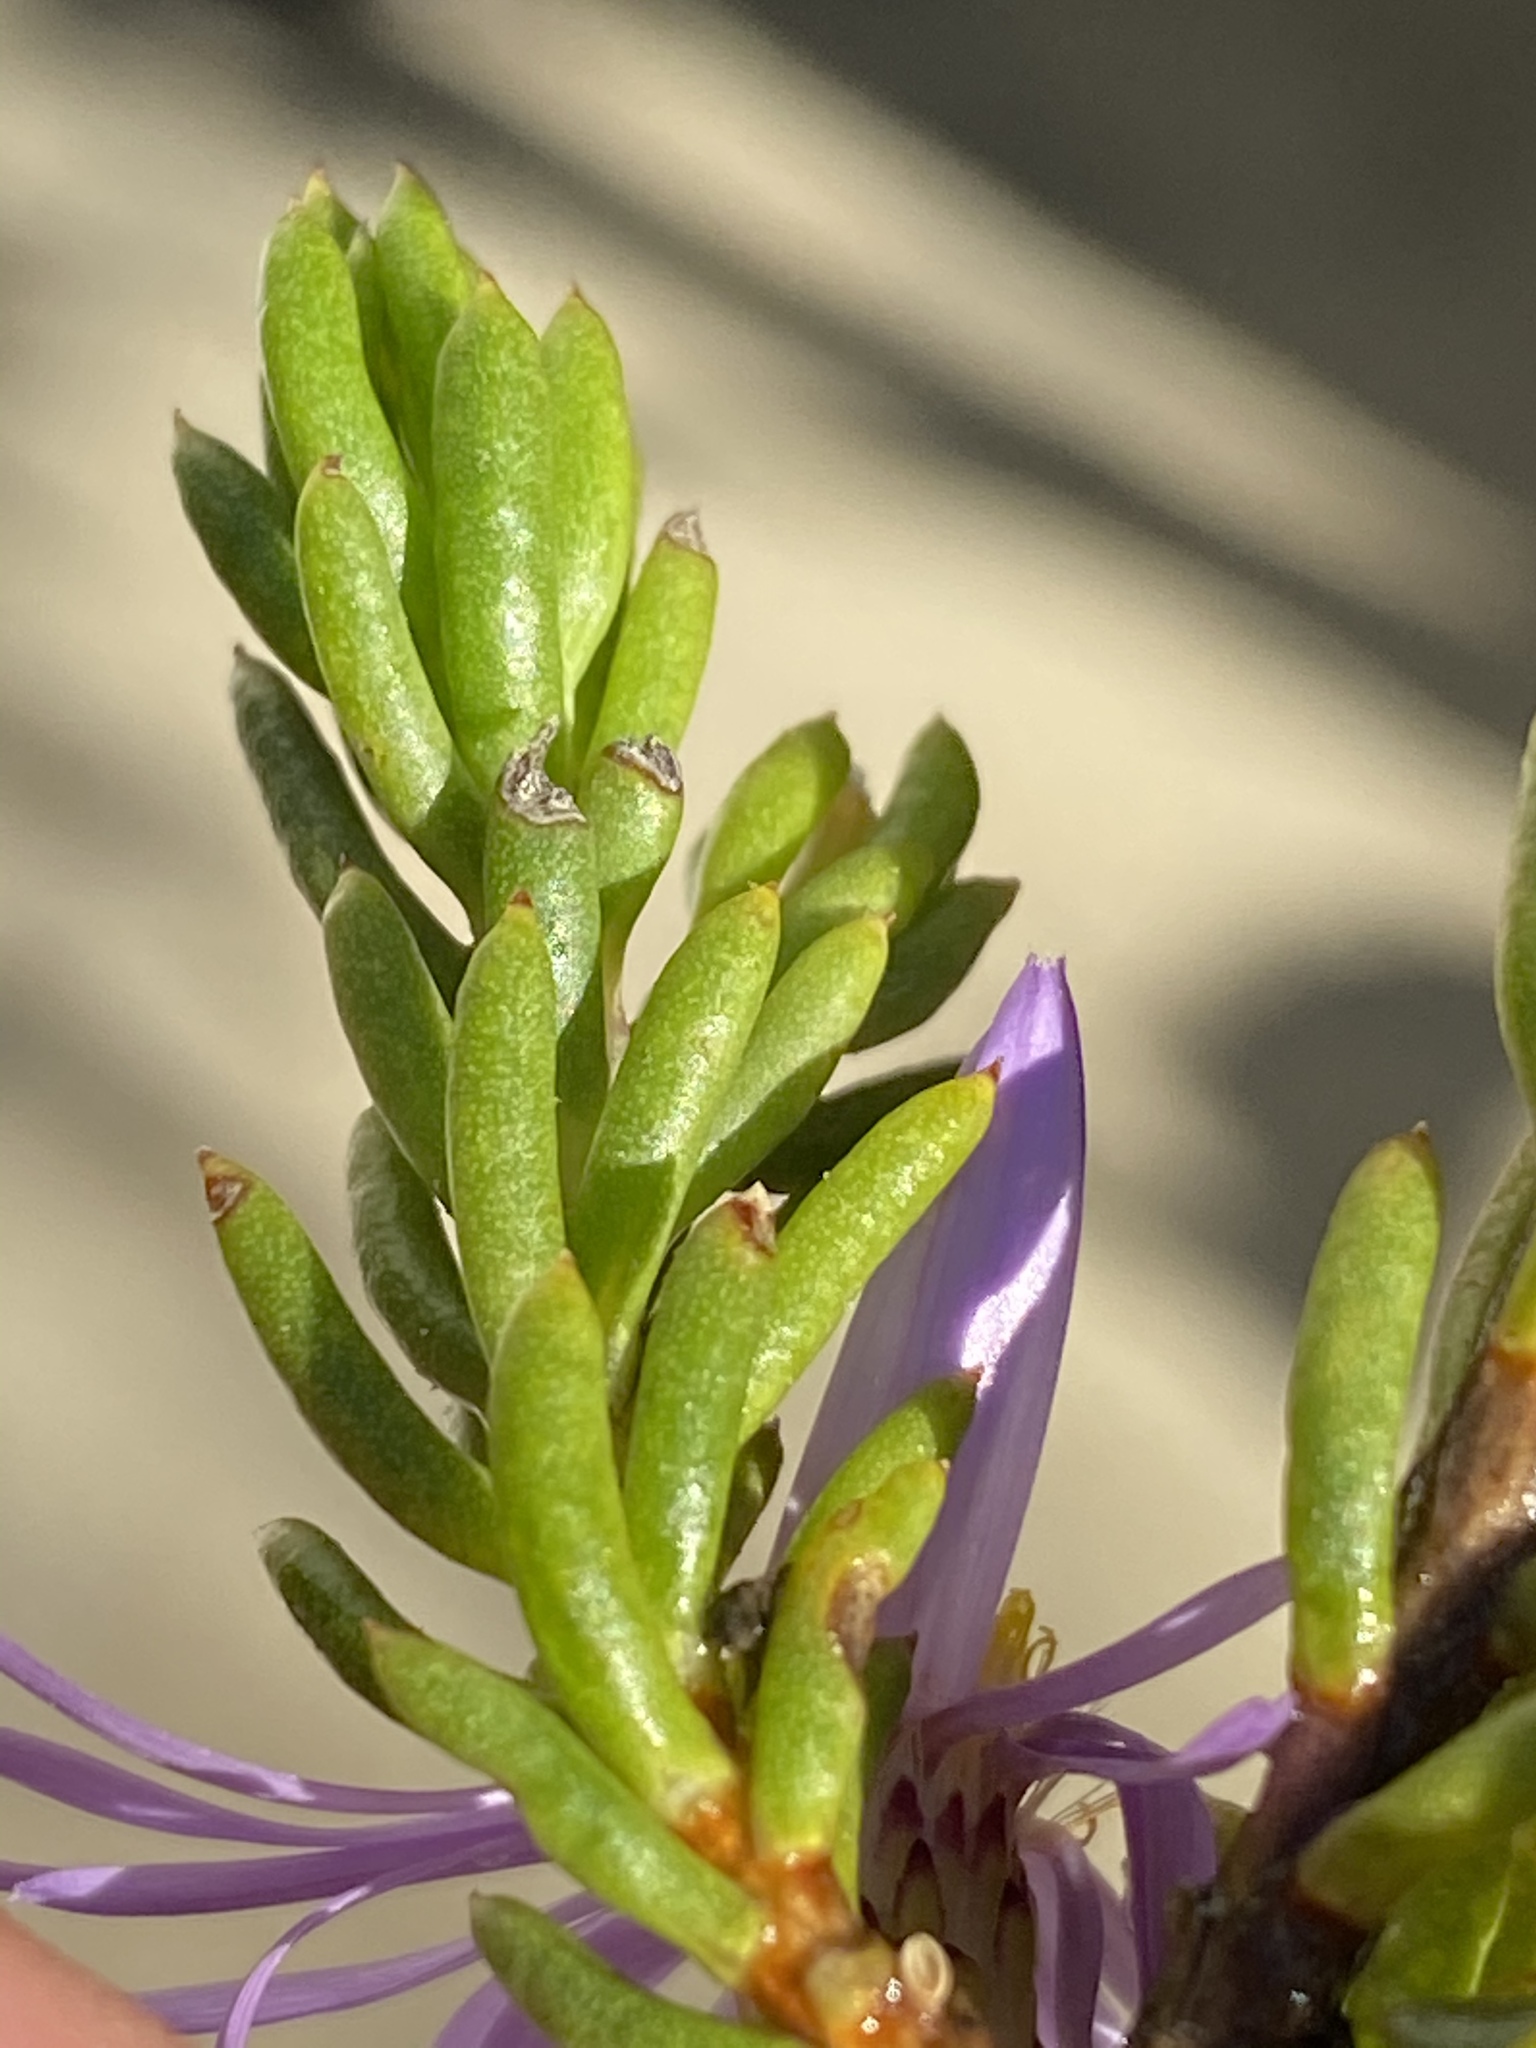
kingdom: Plantae
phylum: Tracheophyta
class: Magnoliopsida
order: Asterales
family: Asteraceae
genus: Felicia
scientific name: Felicia oleosa
